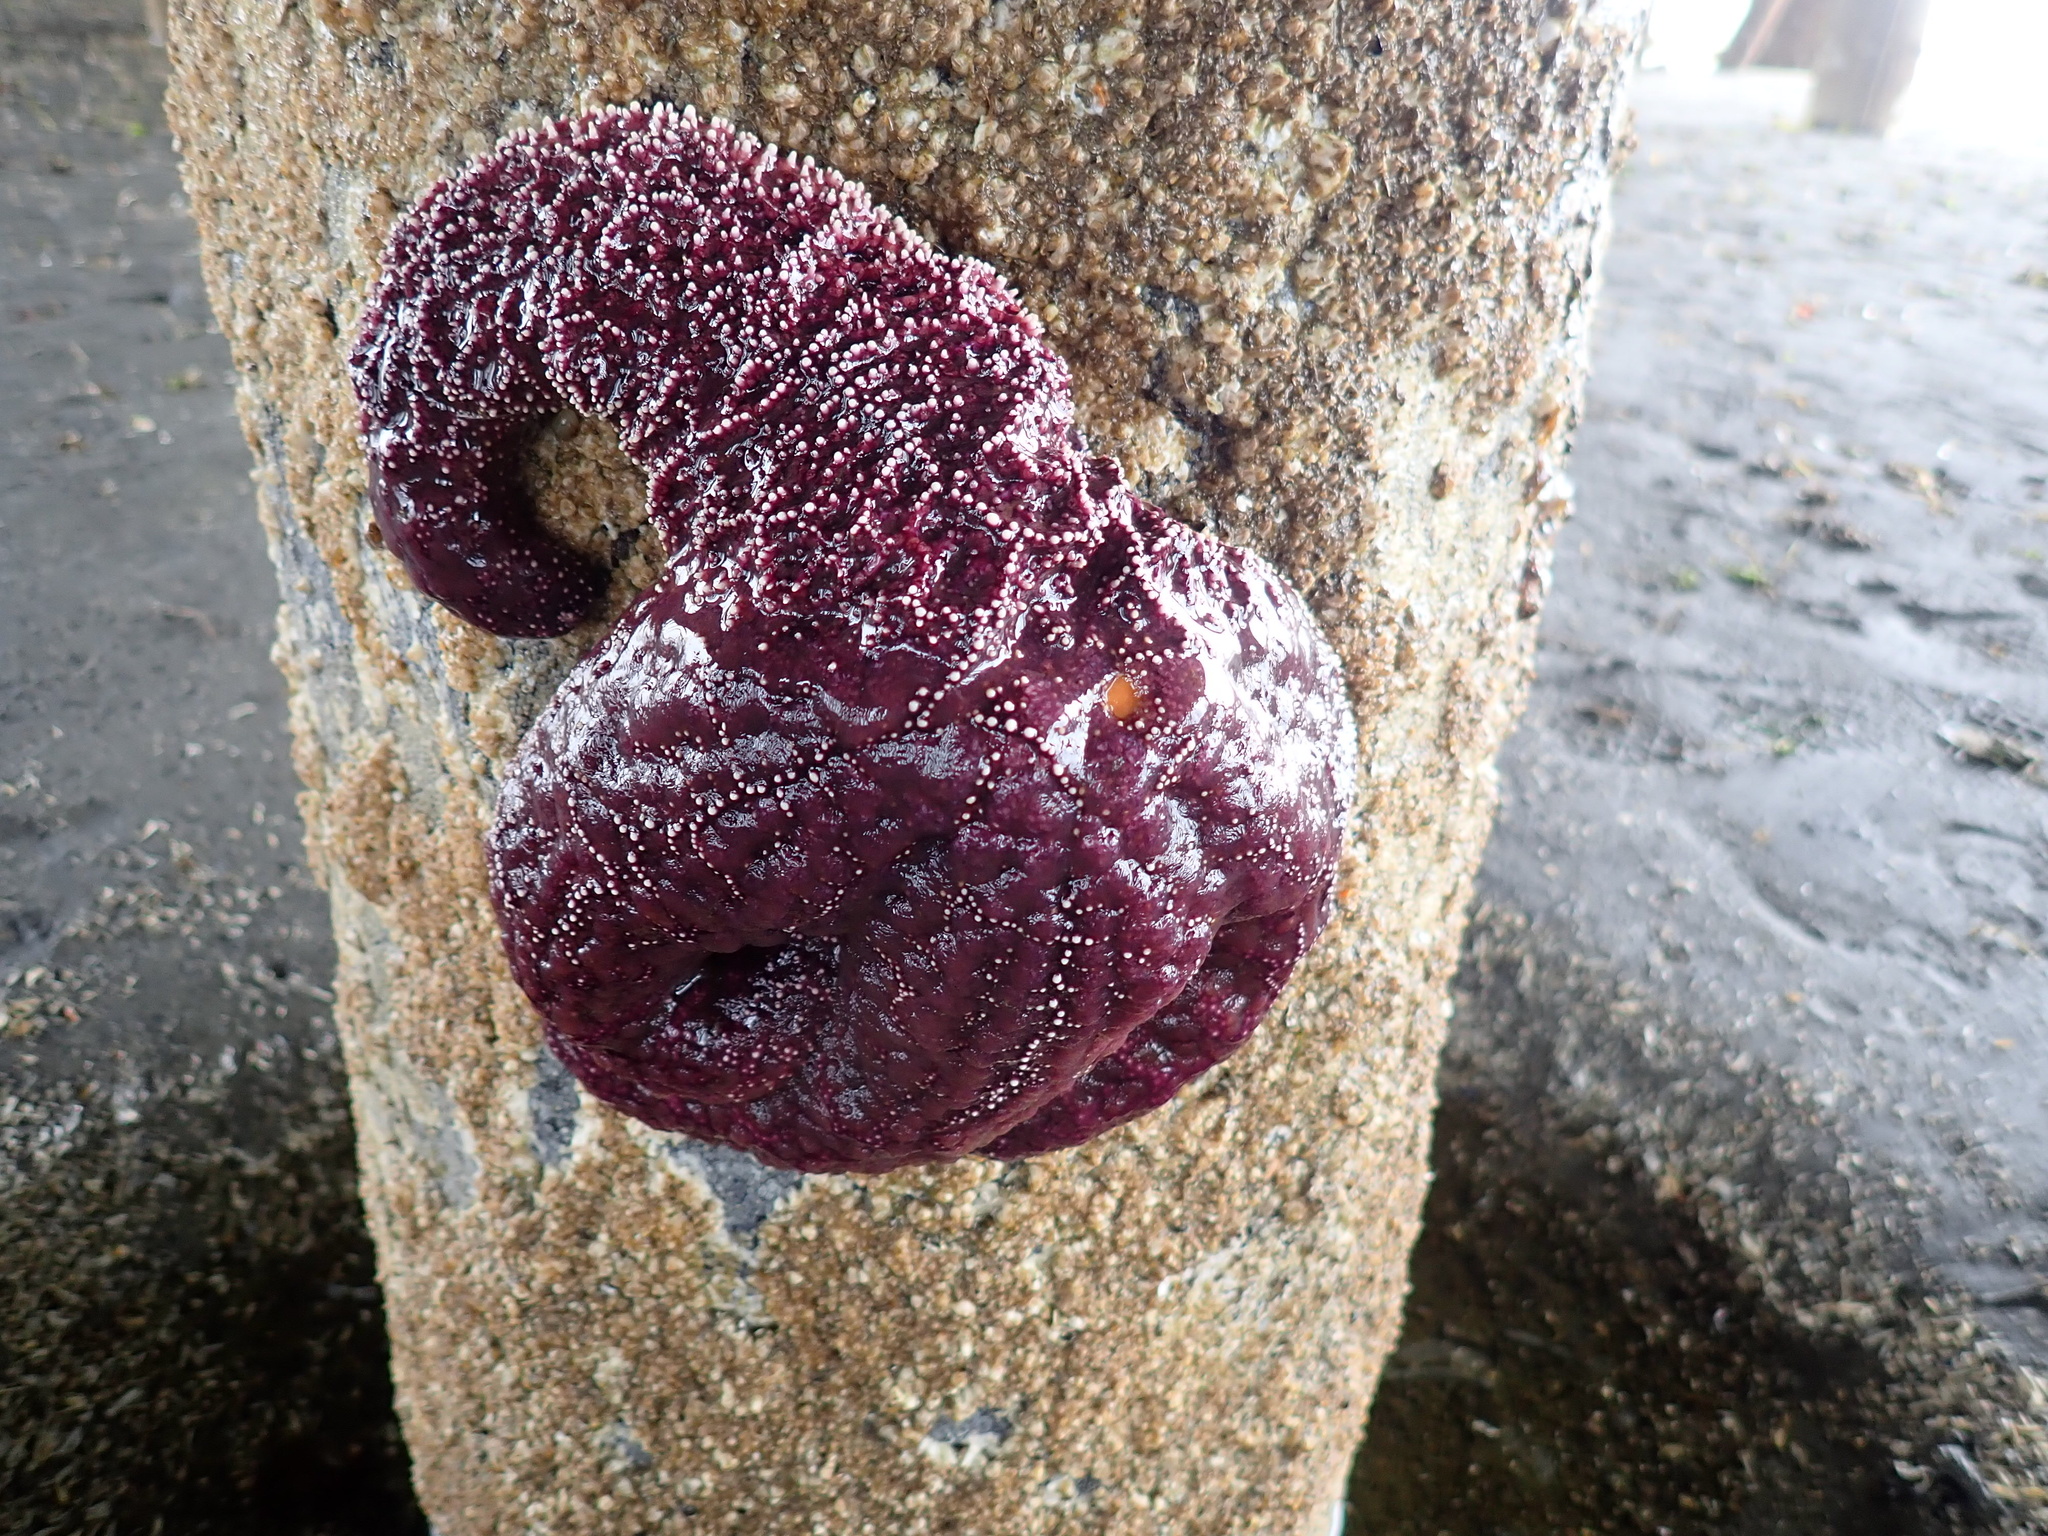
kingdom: Animalia
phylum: Echinodermata
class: Asteroidea
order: Forcipulatida
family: Asteriidae
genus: Pisaster
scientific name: Pisaster ochraceus
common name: Ochre stars
